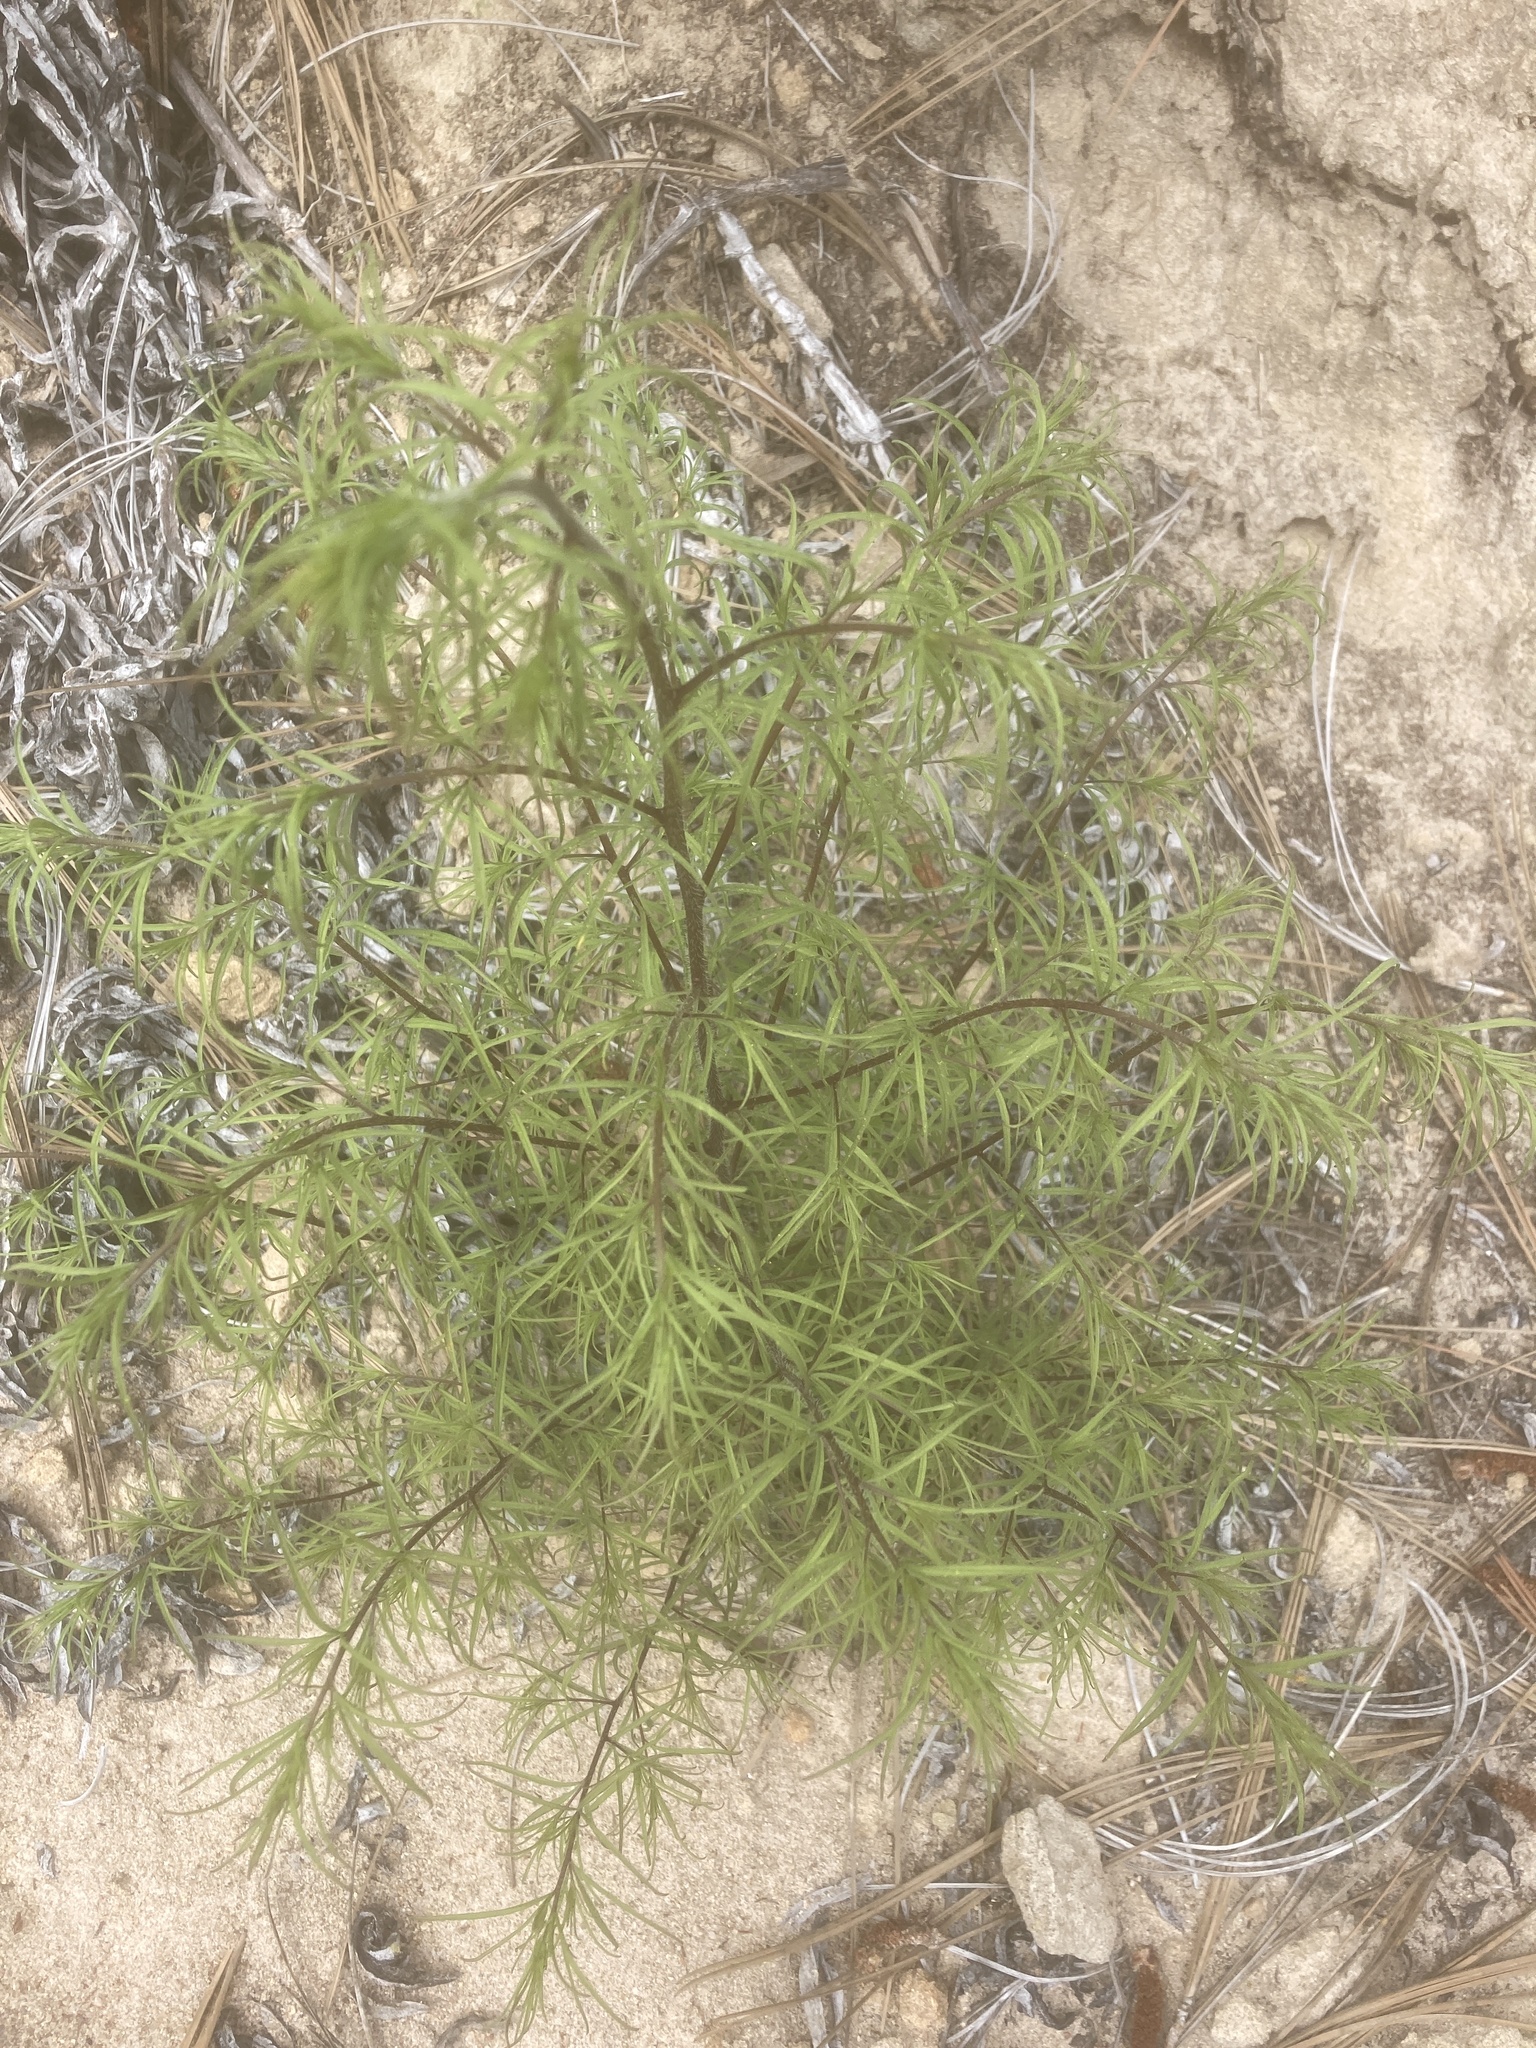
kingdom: Plantae
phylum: Tracheophyta
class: Magnoliopsida
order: Lamiales
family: Orobanchaceae
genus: Cordylanthus
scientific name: Cordylanthus rigidus
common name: Stiff-branch bird's-beak
